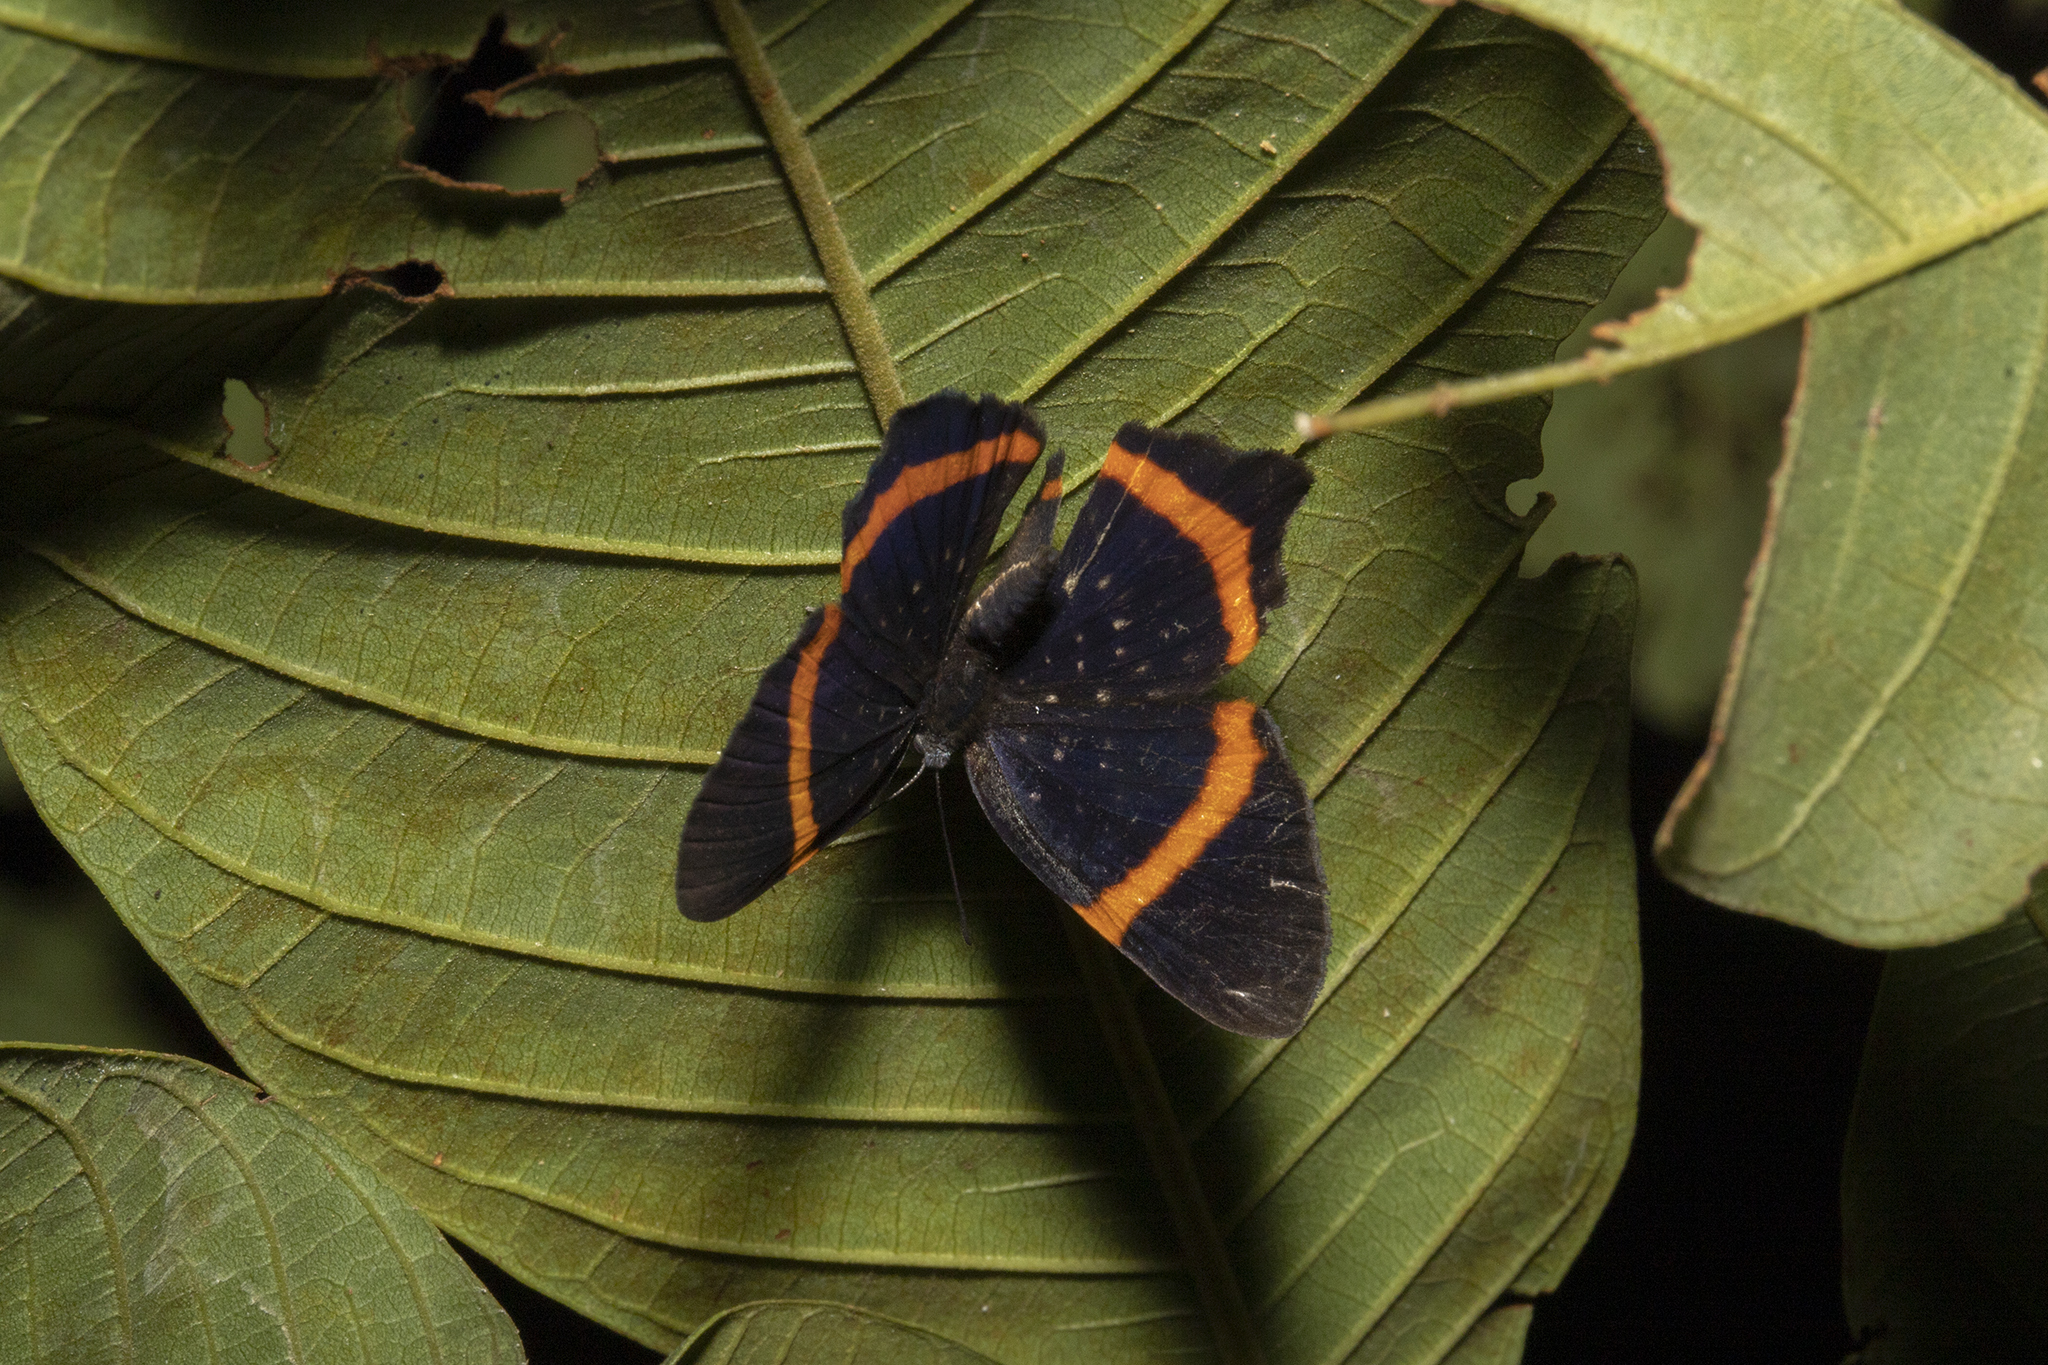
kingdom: Animalia
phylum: Arthropoda
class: Insecta
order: Lepidoptera
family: Riodinidae
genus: Riodina
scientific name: Riodina lysippus
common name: Lysippus metalmark
